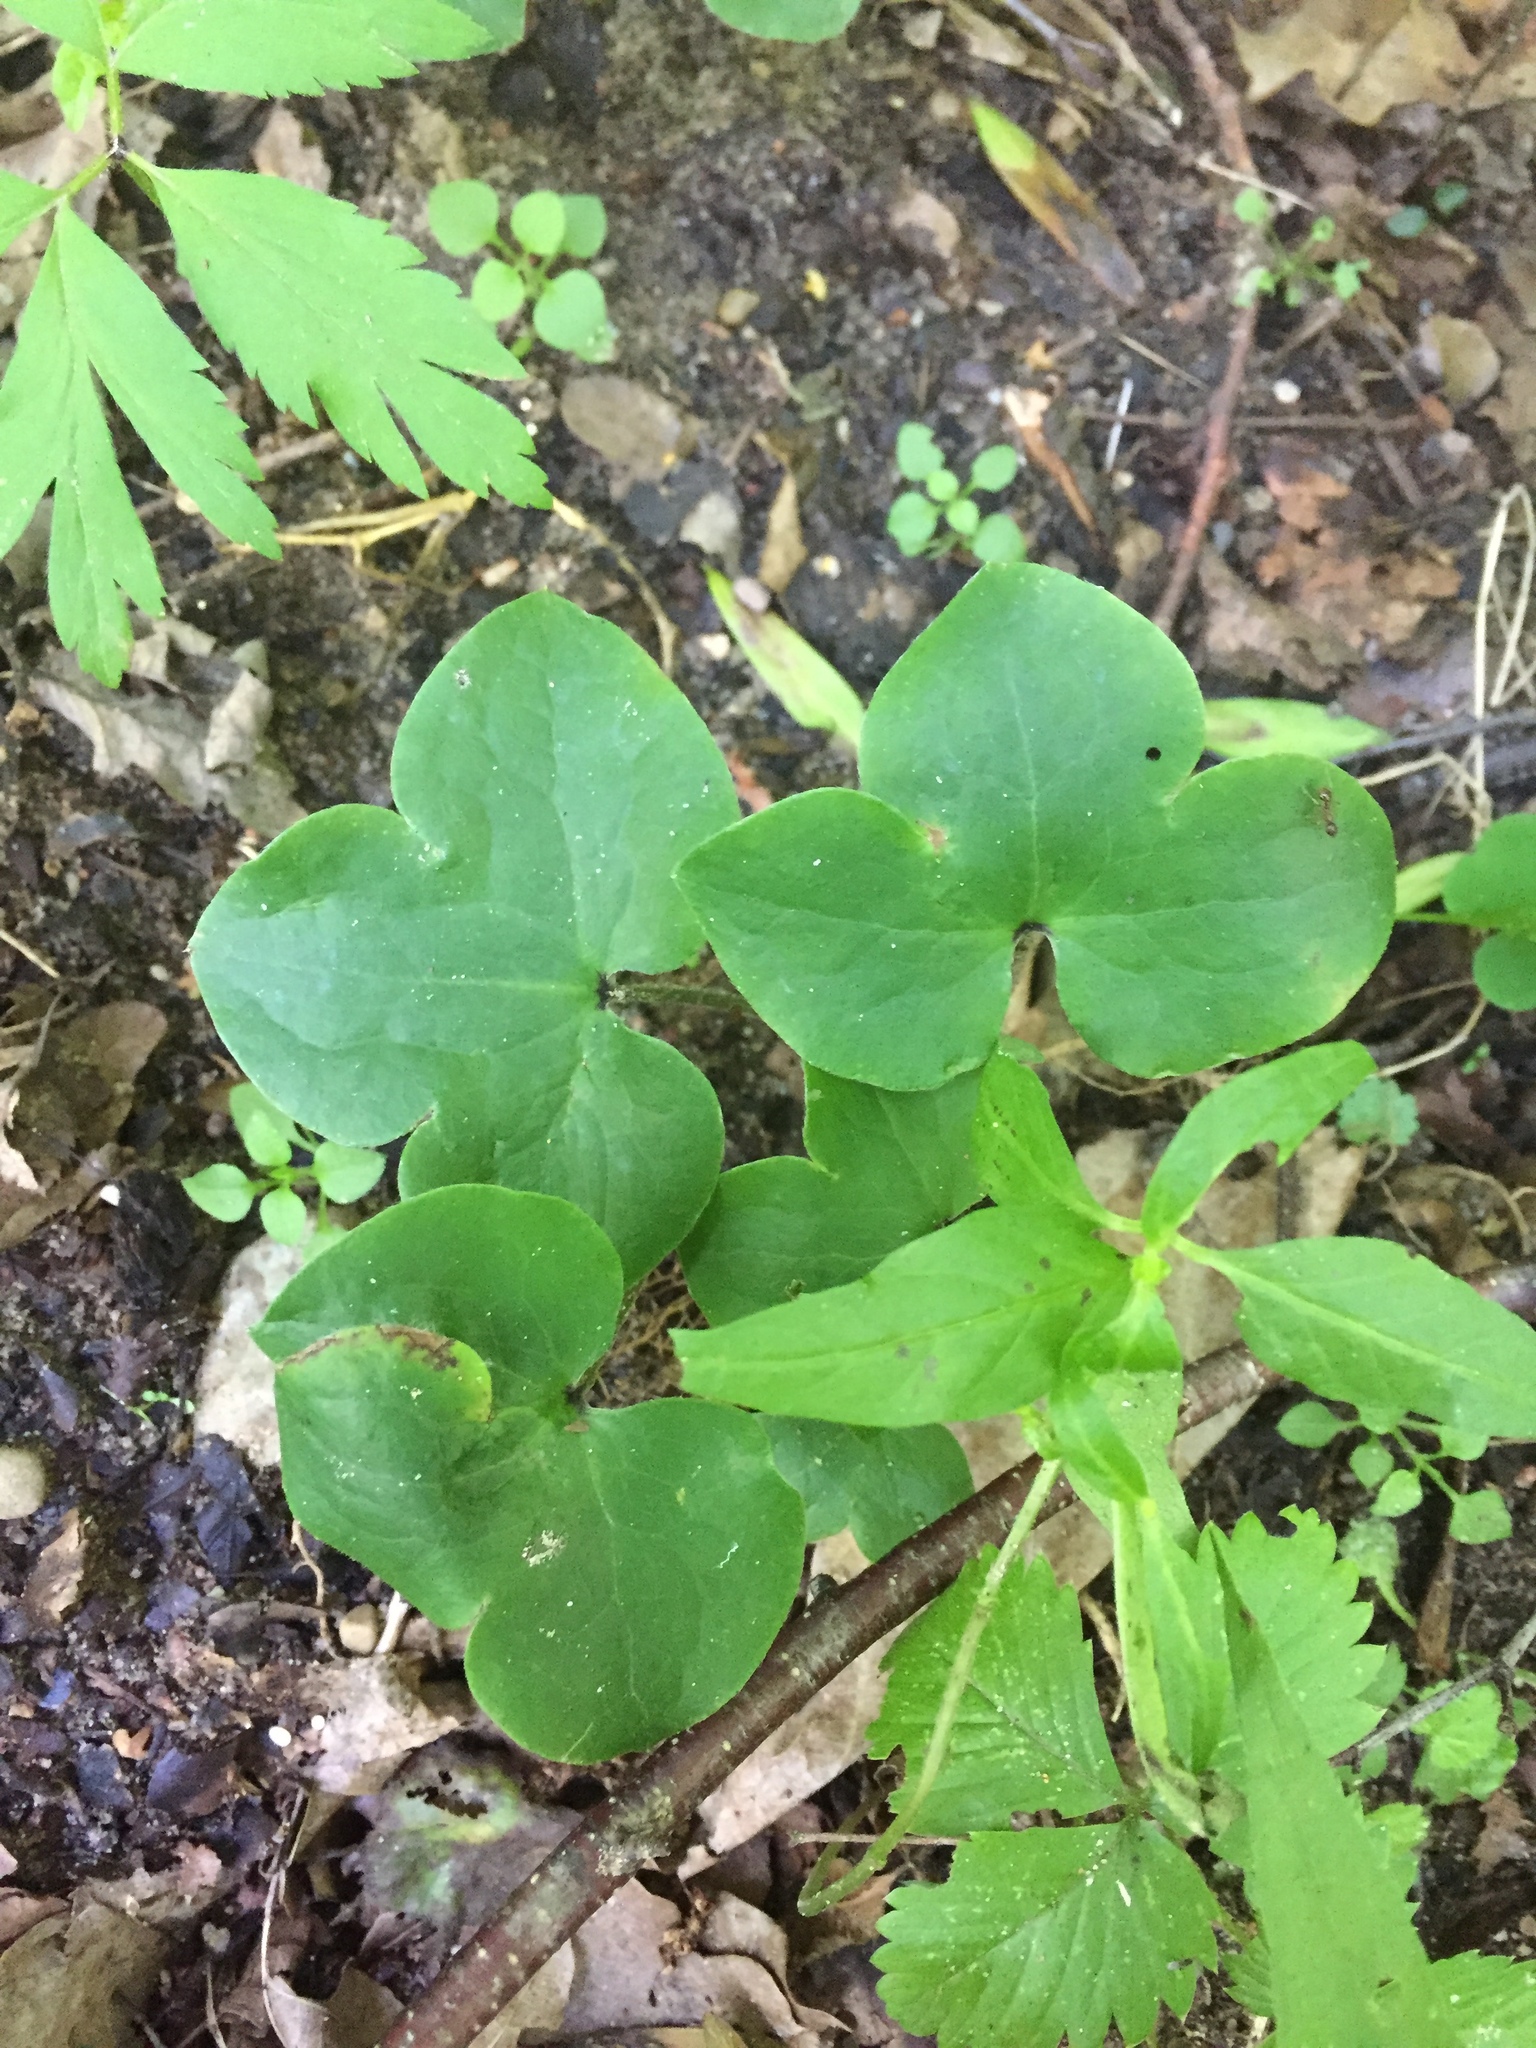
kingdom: Plantae
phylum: Tracheophyta
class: Magnoliopsida
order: Ranunculales
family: Ranunculaceae
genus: Hepatica
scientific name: Hepatica nobilis
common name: Liverleaf
